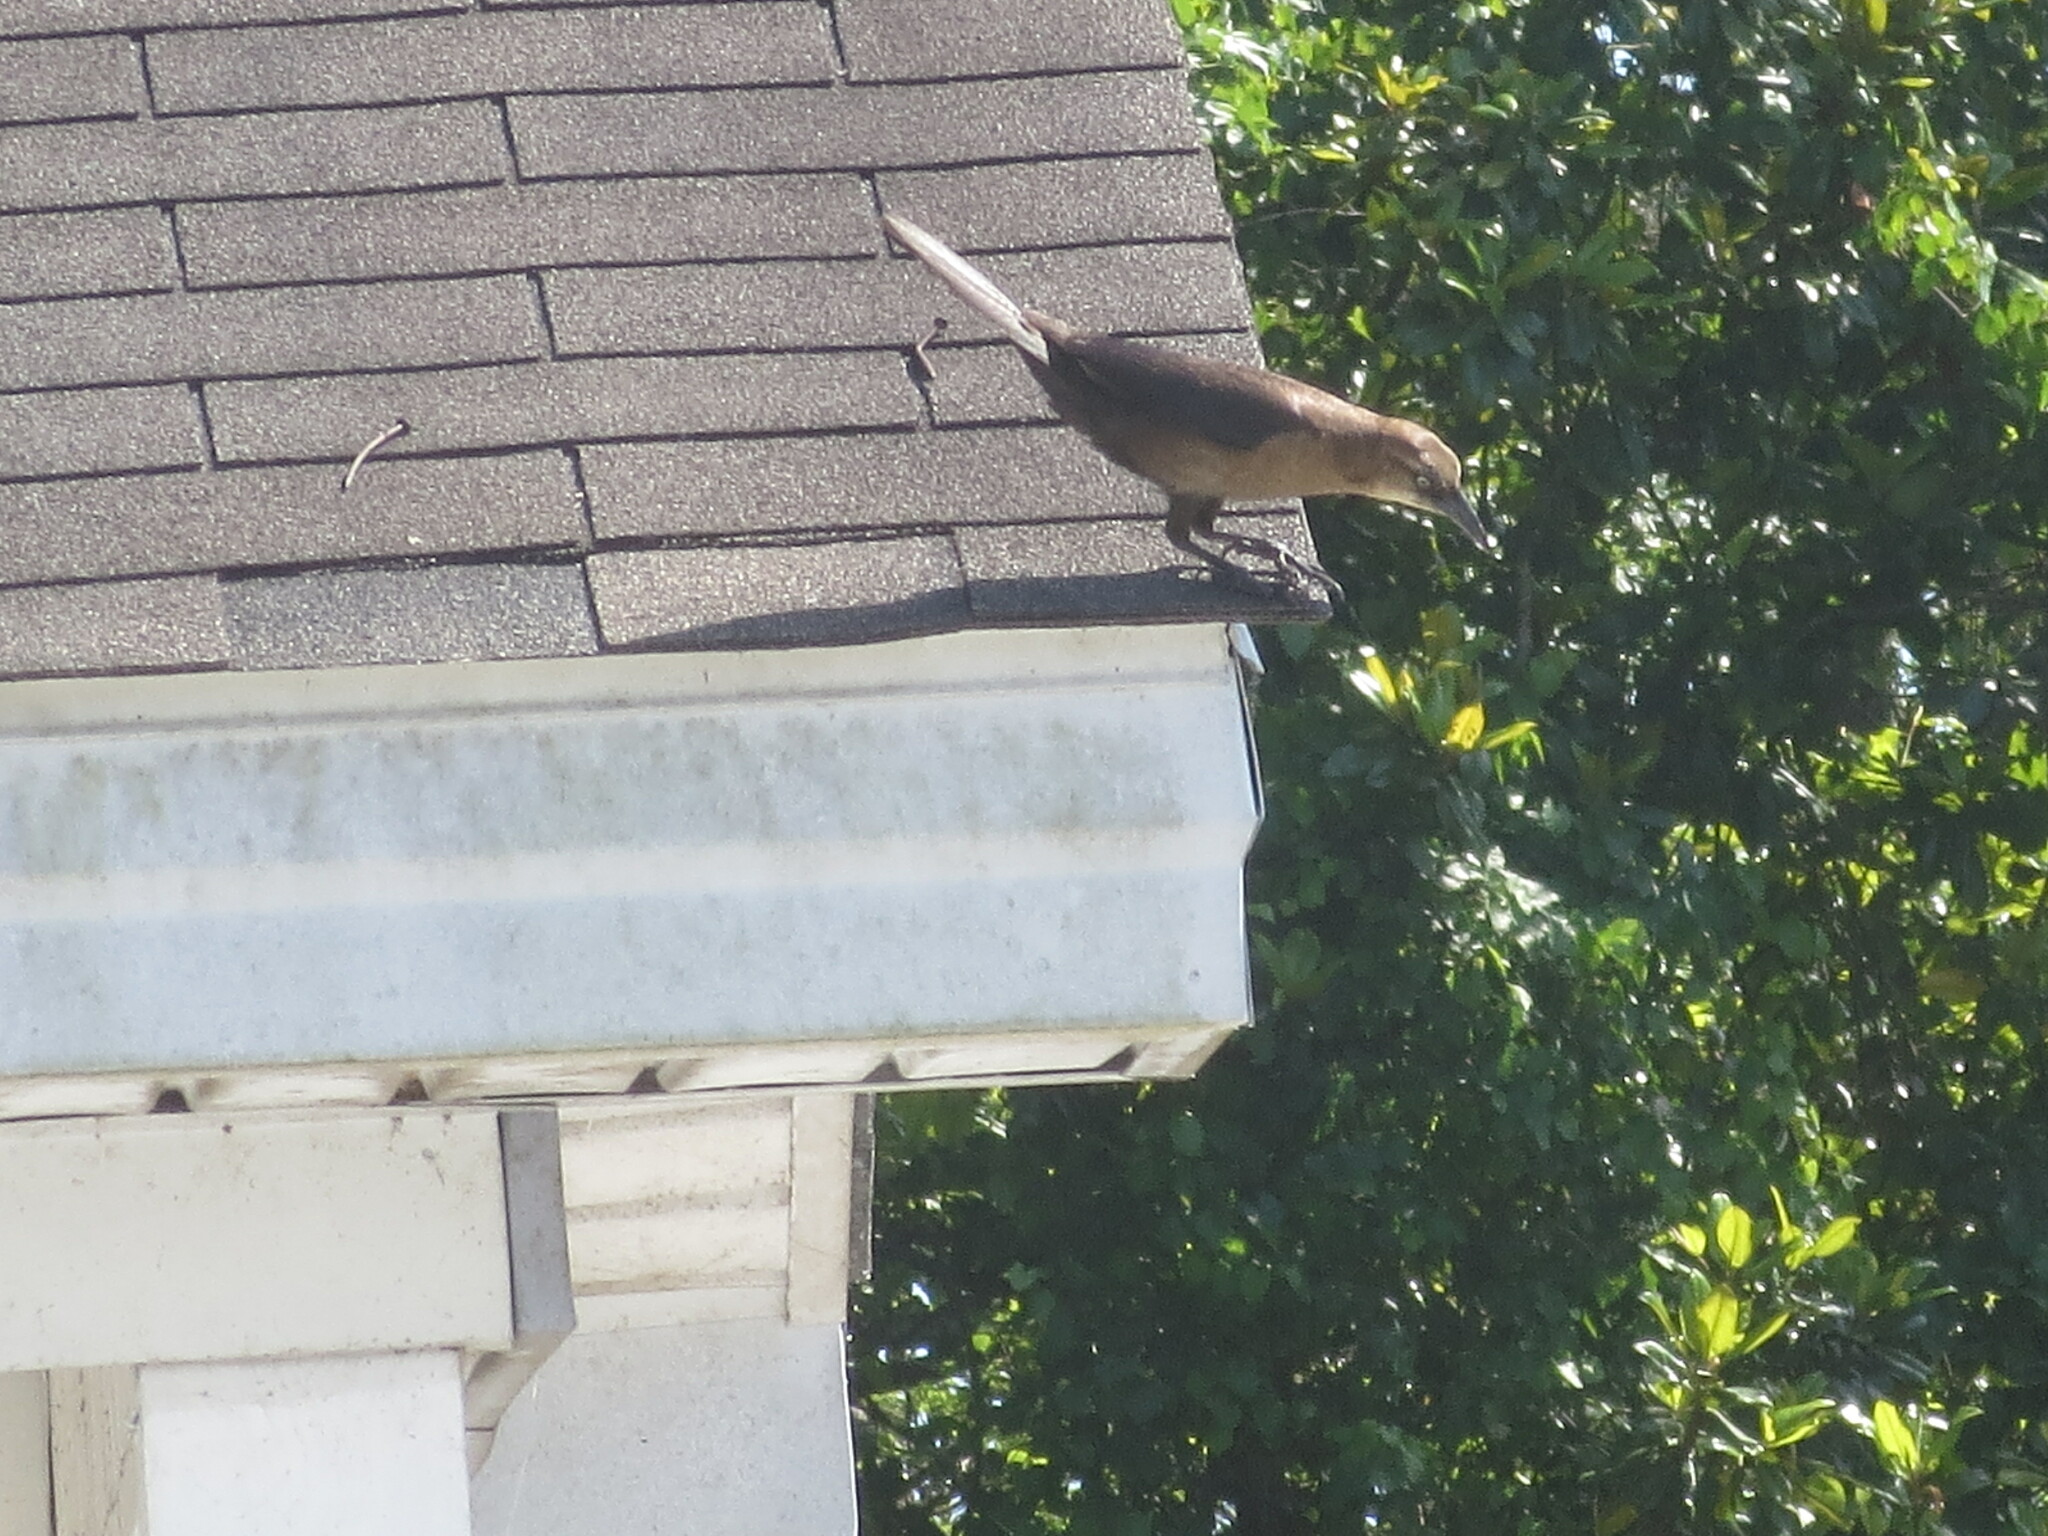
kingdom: Animalia
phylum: Chordata
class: Aves
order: Passeriformes
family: Icteridae
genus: Quiscalus
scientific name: Quiscalus major
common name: Boat-tailed grackle
